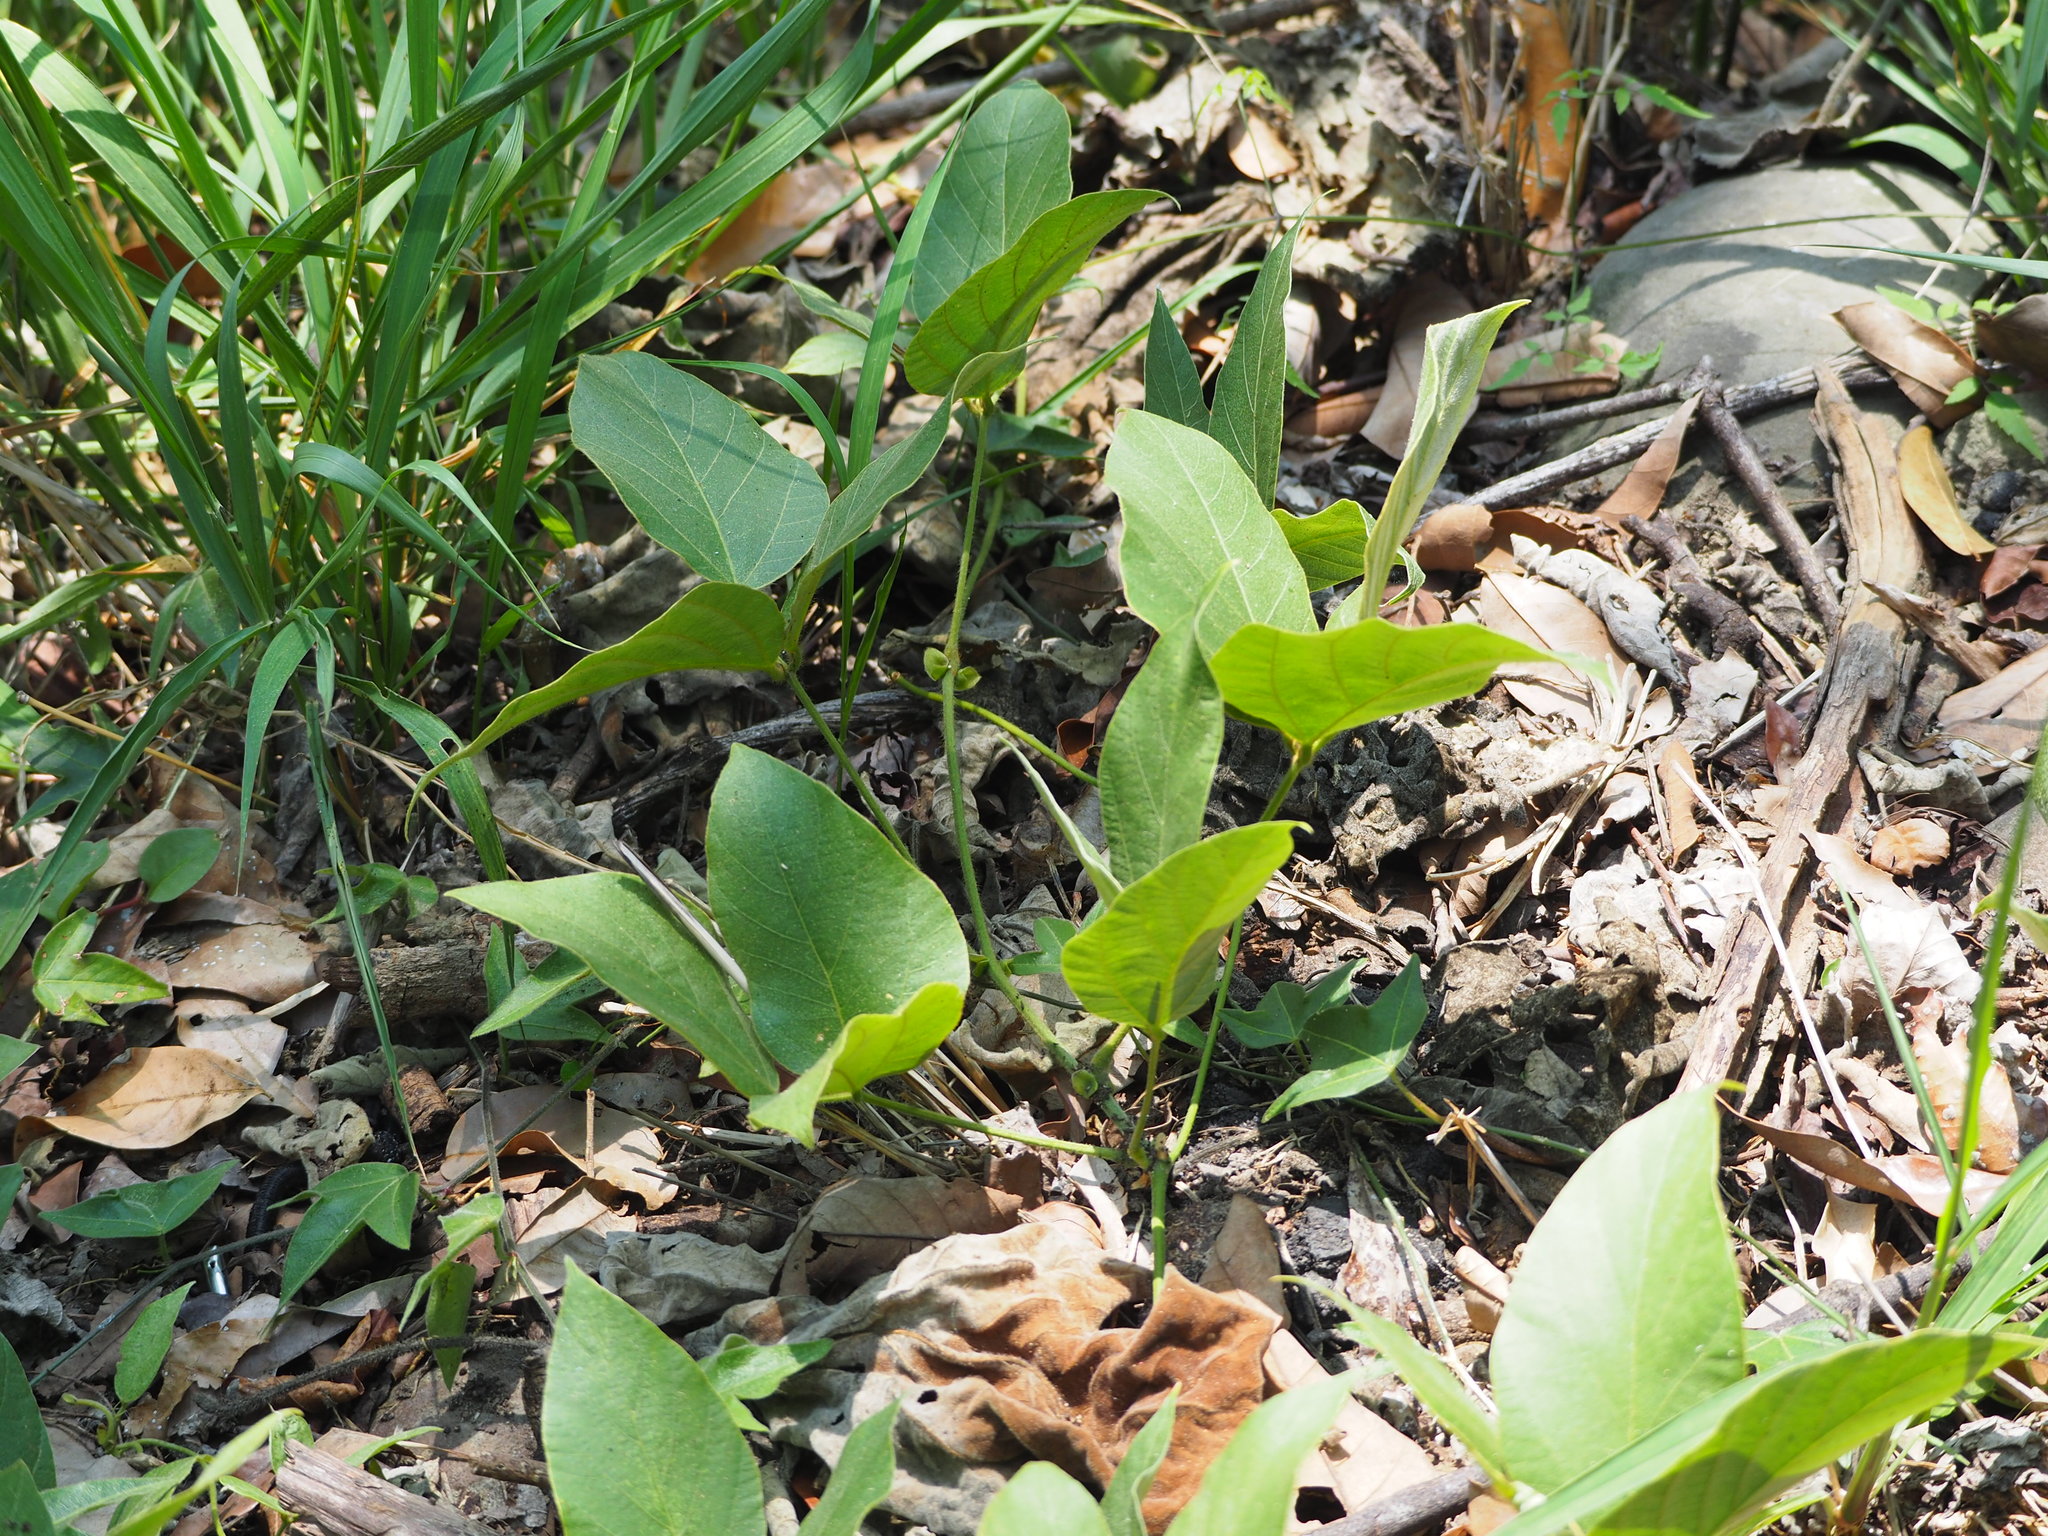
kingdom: Plantae
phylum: Tracheophyta
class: Magnoliopsida
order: Fabales
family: Fabaceae
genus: Pueraria
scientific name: Pueraria montana
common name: Kudzu
